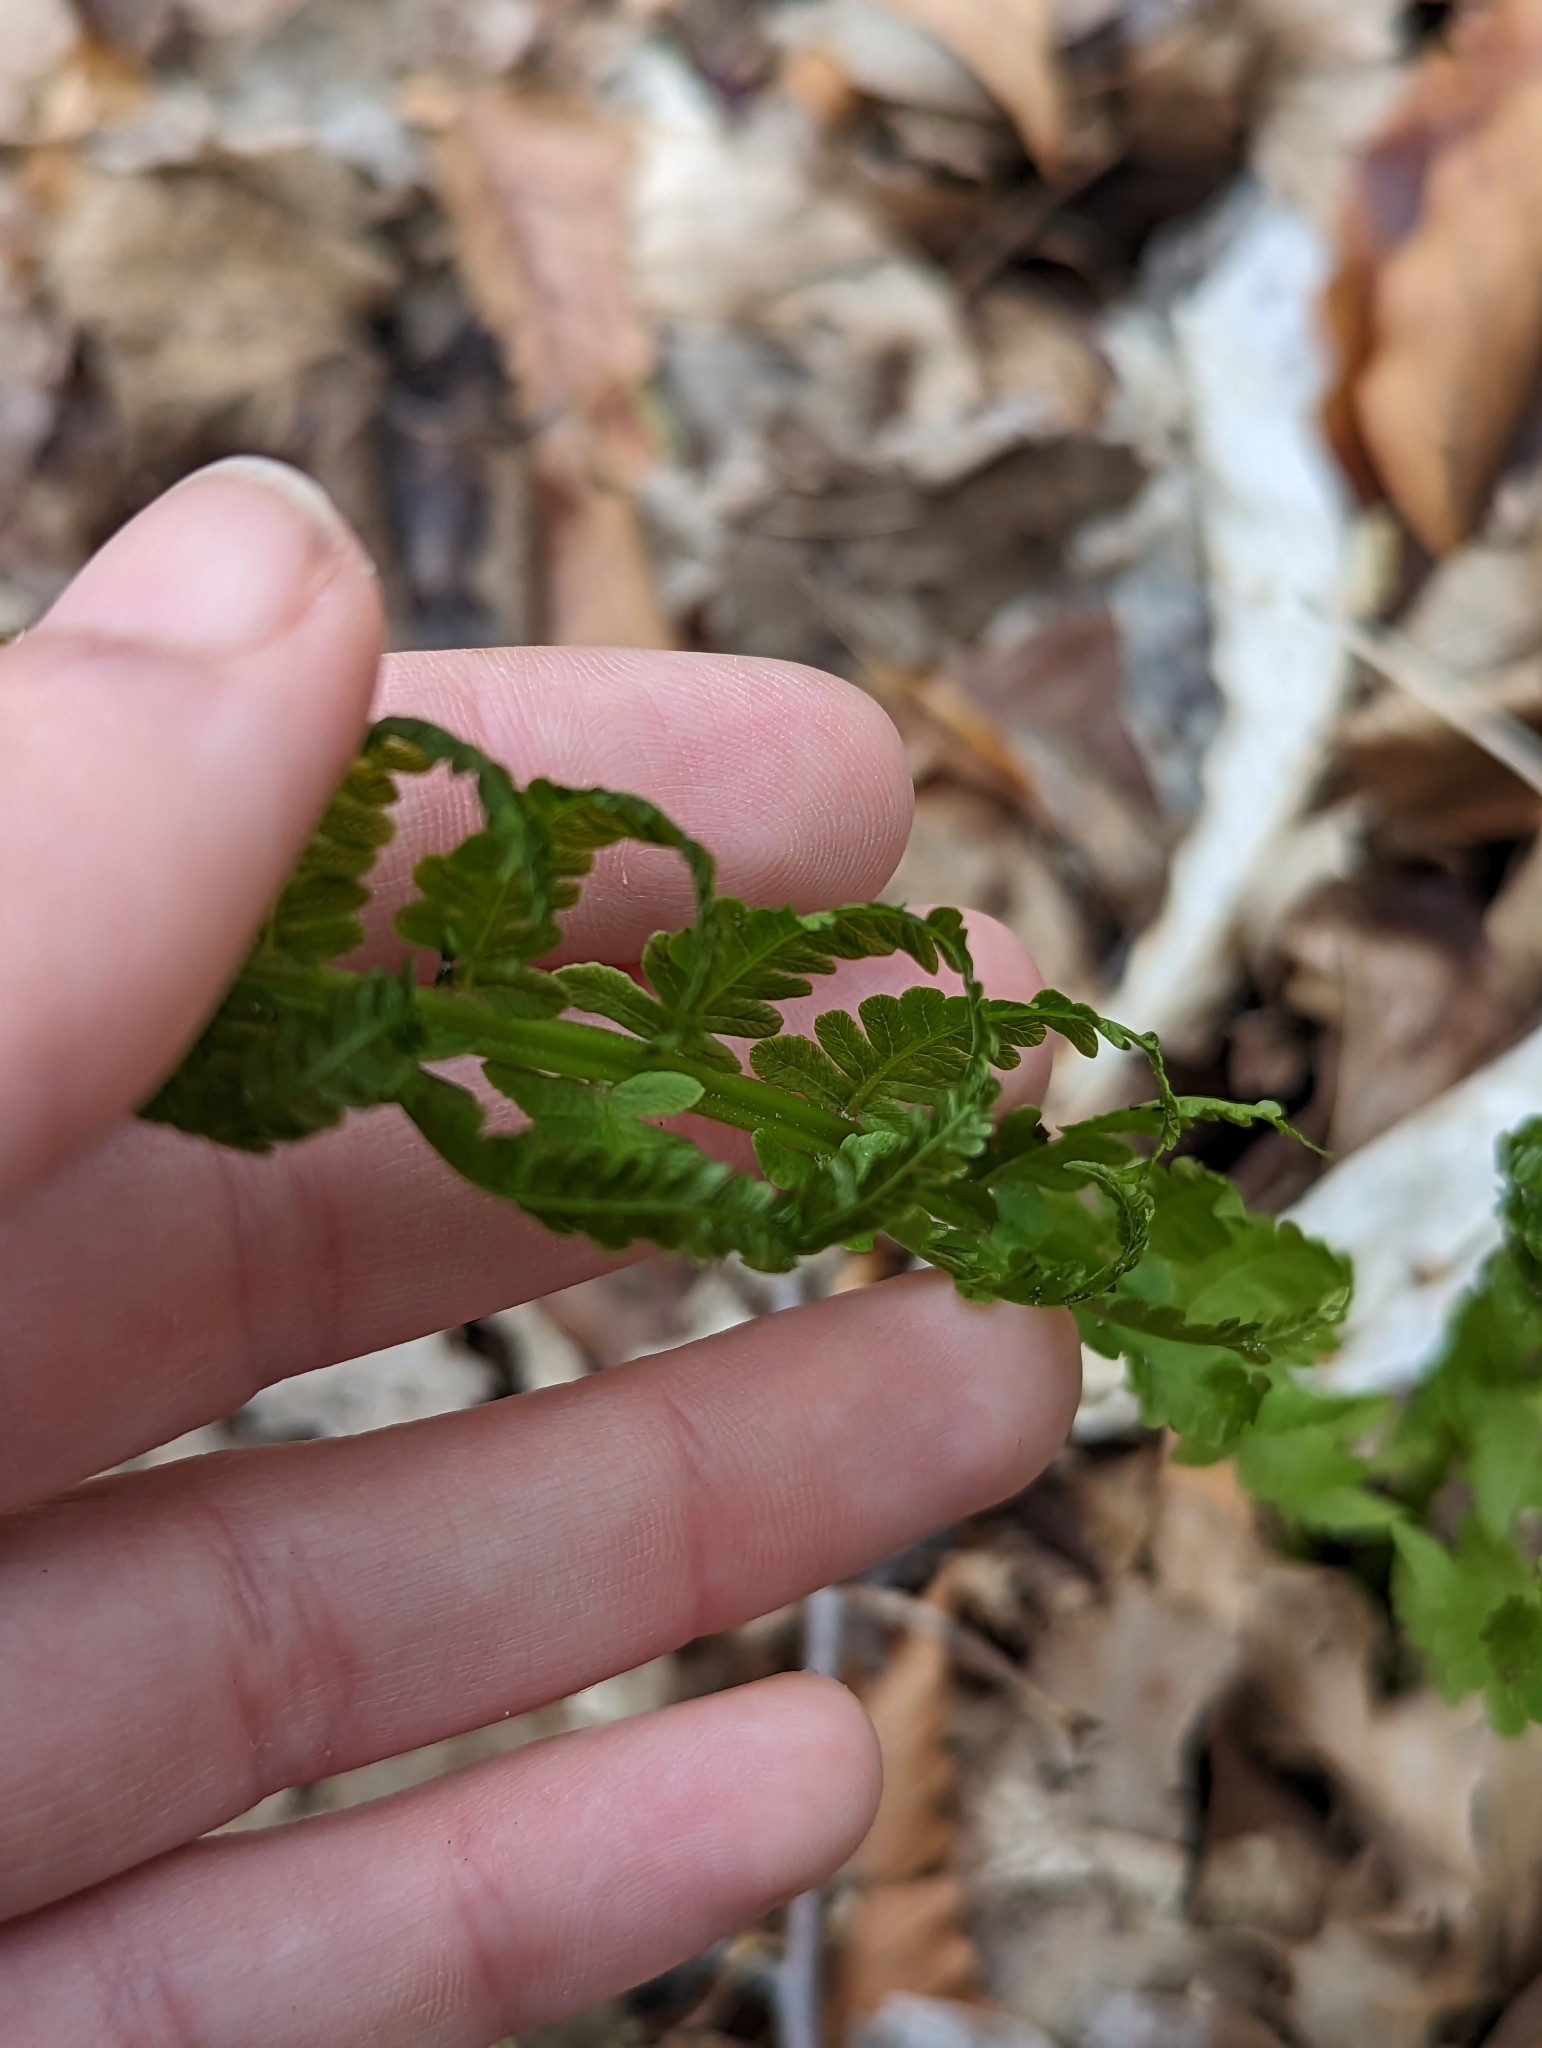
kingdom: Plantae
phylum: Tracheophyta
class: Polypodiopsida
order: Polypodiales
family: Onocleaceae
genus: Matteuccia
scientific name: Matteuccia struthiopteris
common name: Ostrich fern
